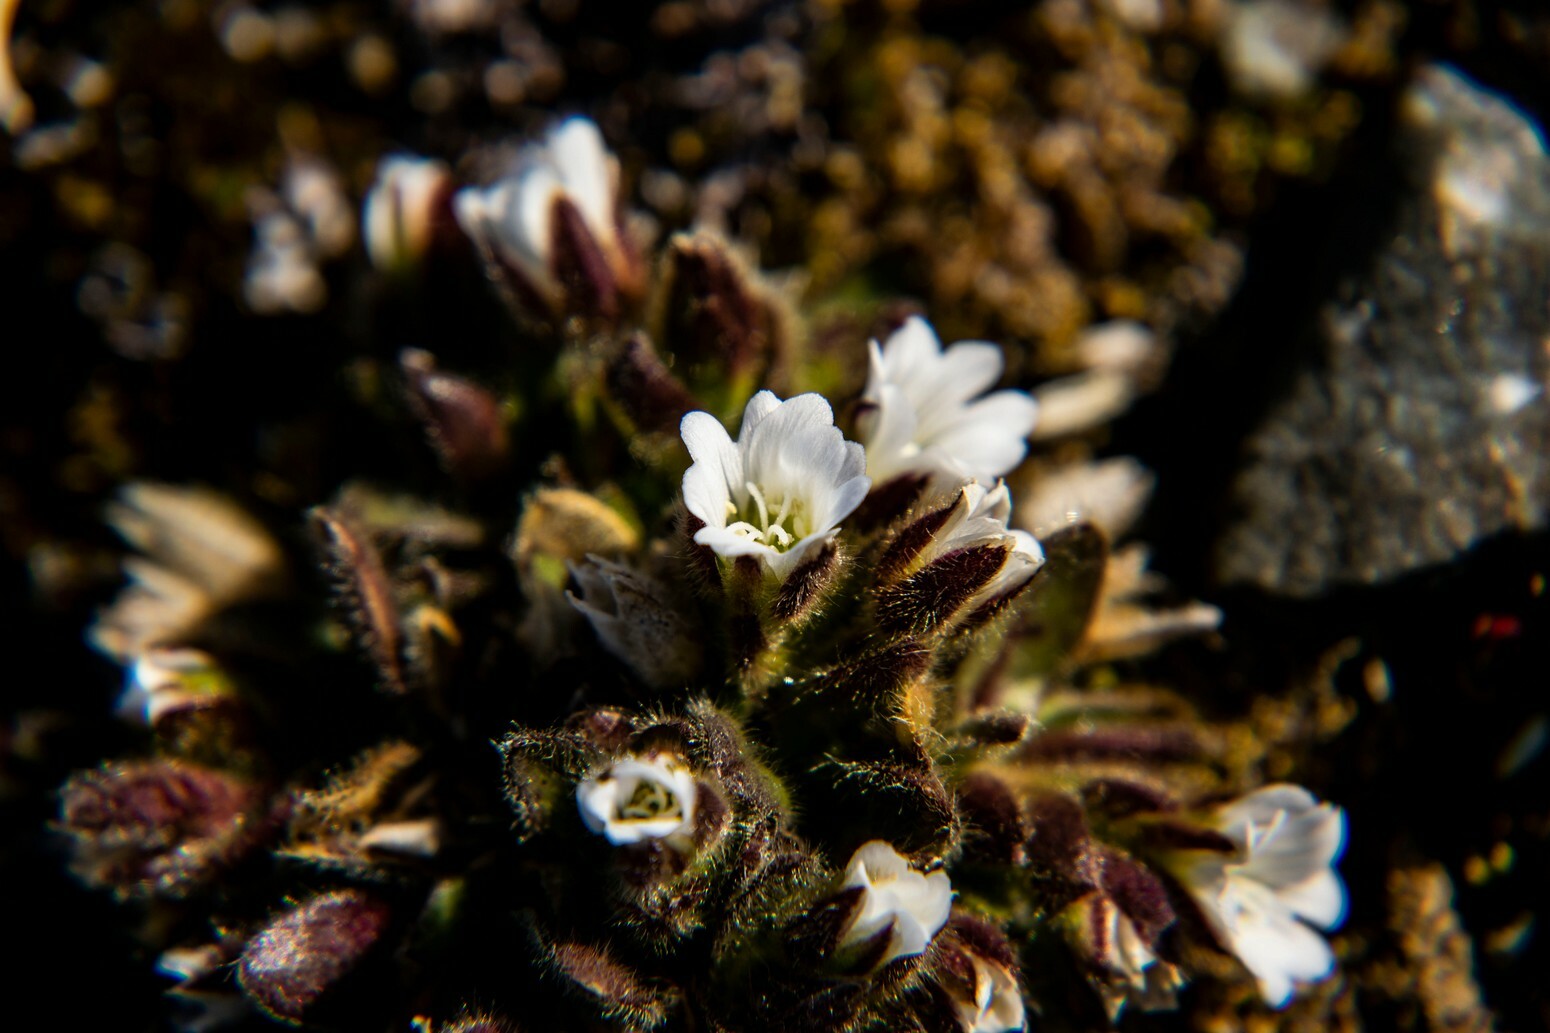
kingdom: Plantae
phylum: Tracheophyta
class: Magnoliopsida
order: Caryophyllales
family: Caryophyllaceae
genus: Cerastium
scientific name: Cerastium beeringianum
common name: Bering mouse-ear chickweed
